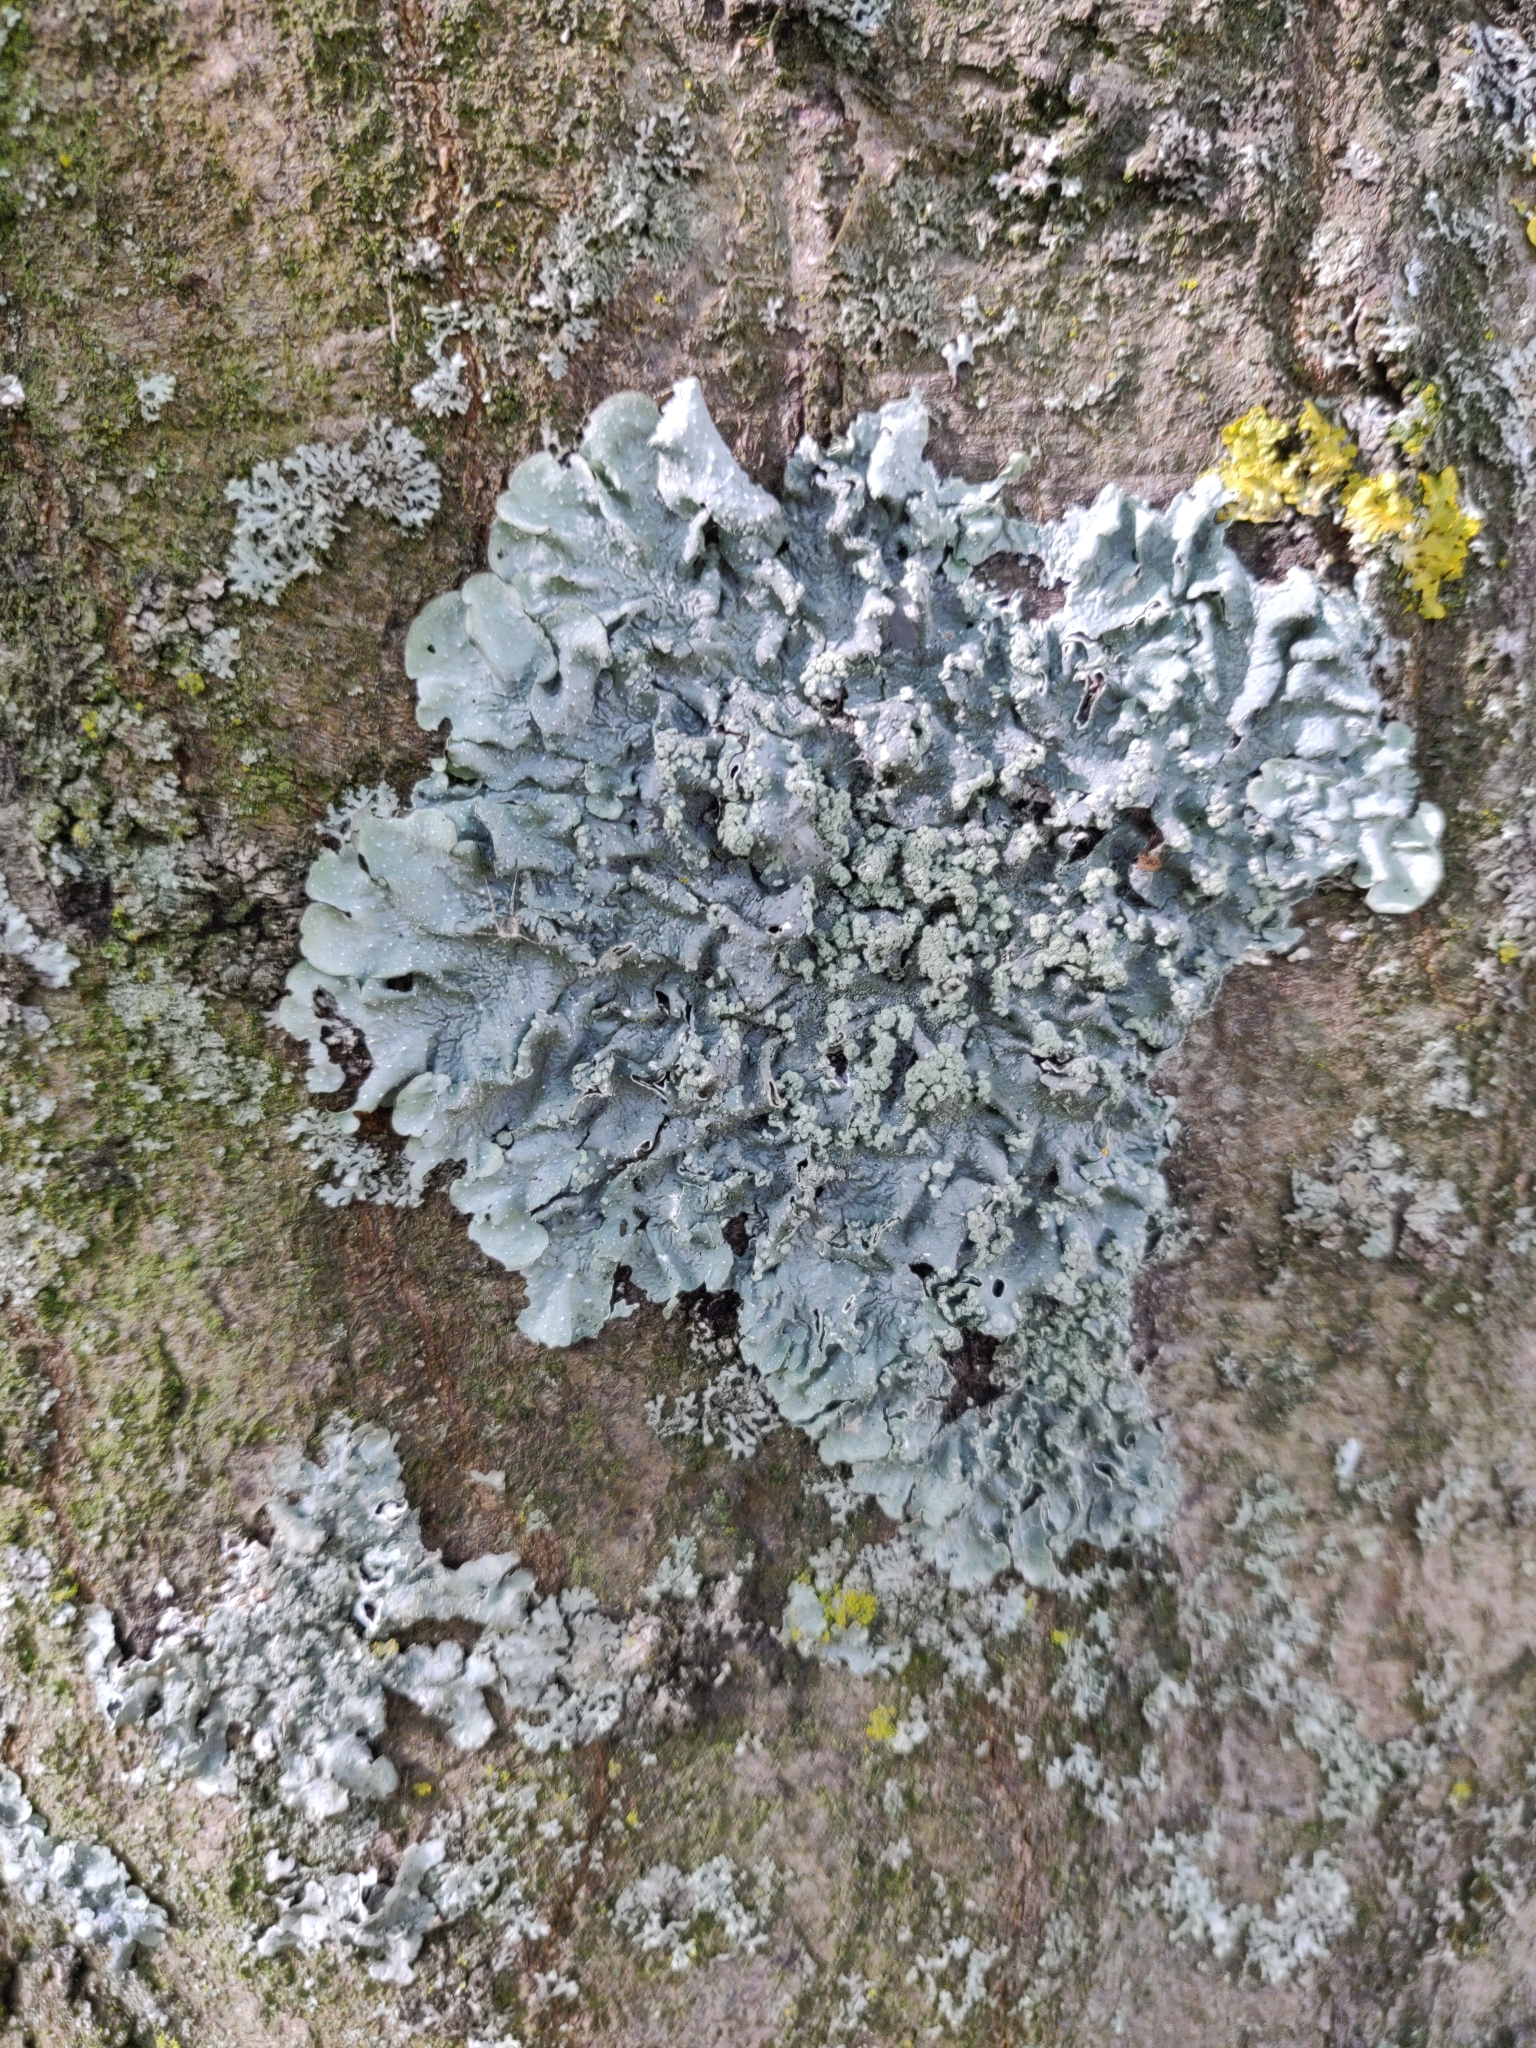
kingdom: Fungi
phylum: Ascomycota
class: Lecanoromycetes
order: Lecanorales
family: Parmeliaceae
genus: Punctelia
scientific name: Punctelia
